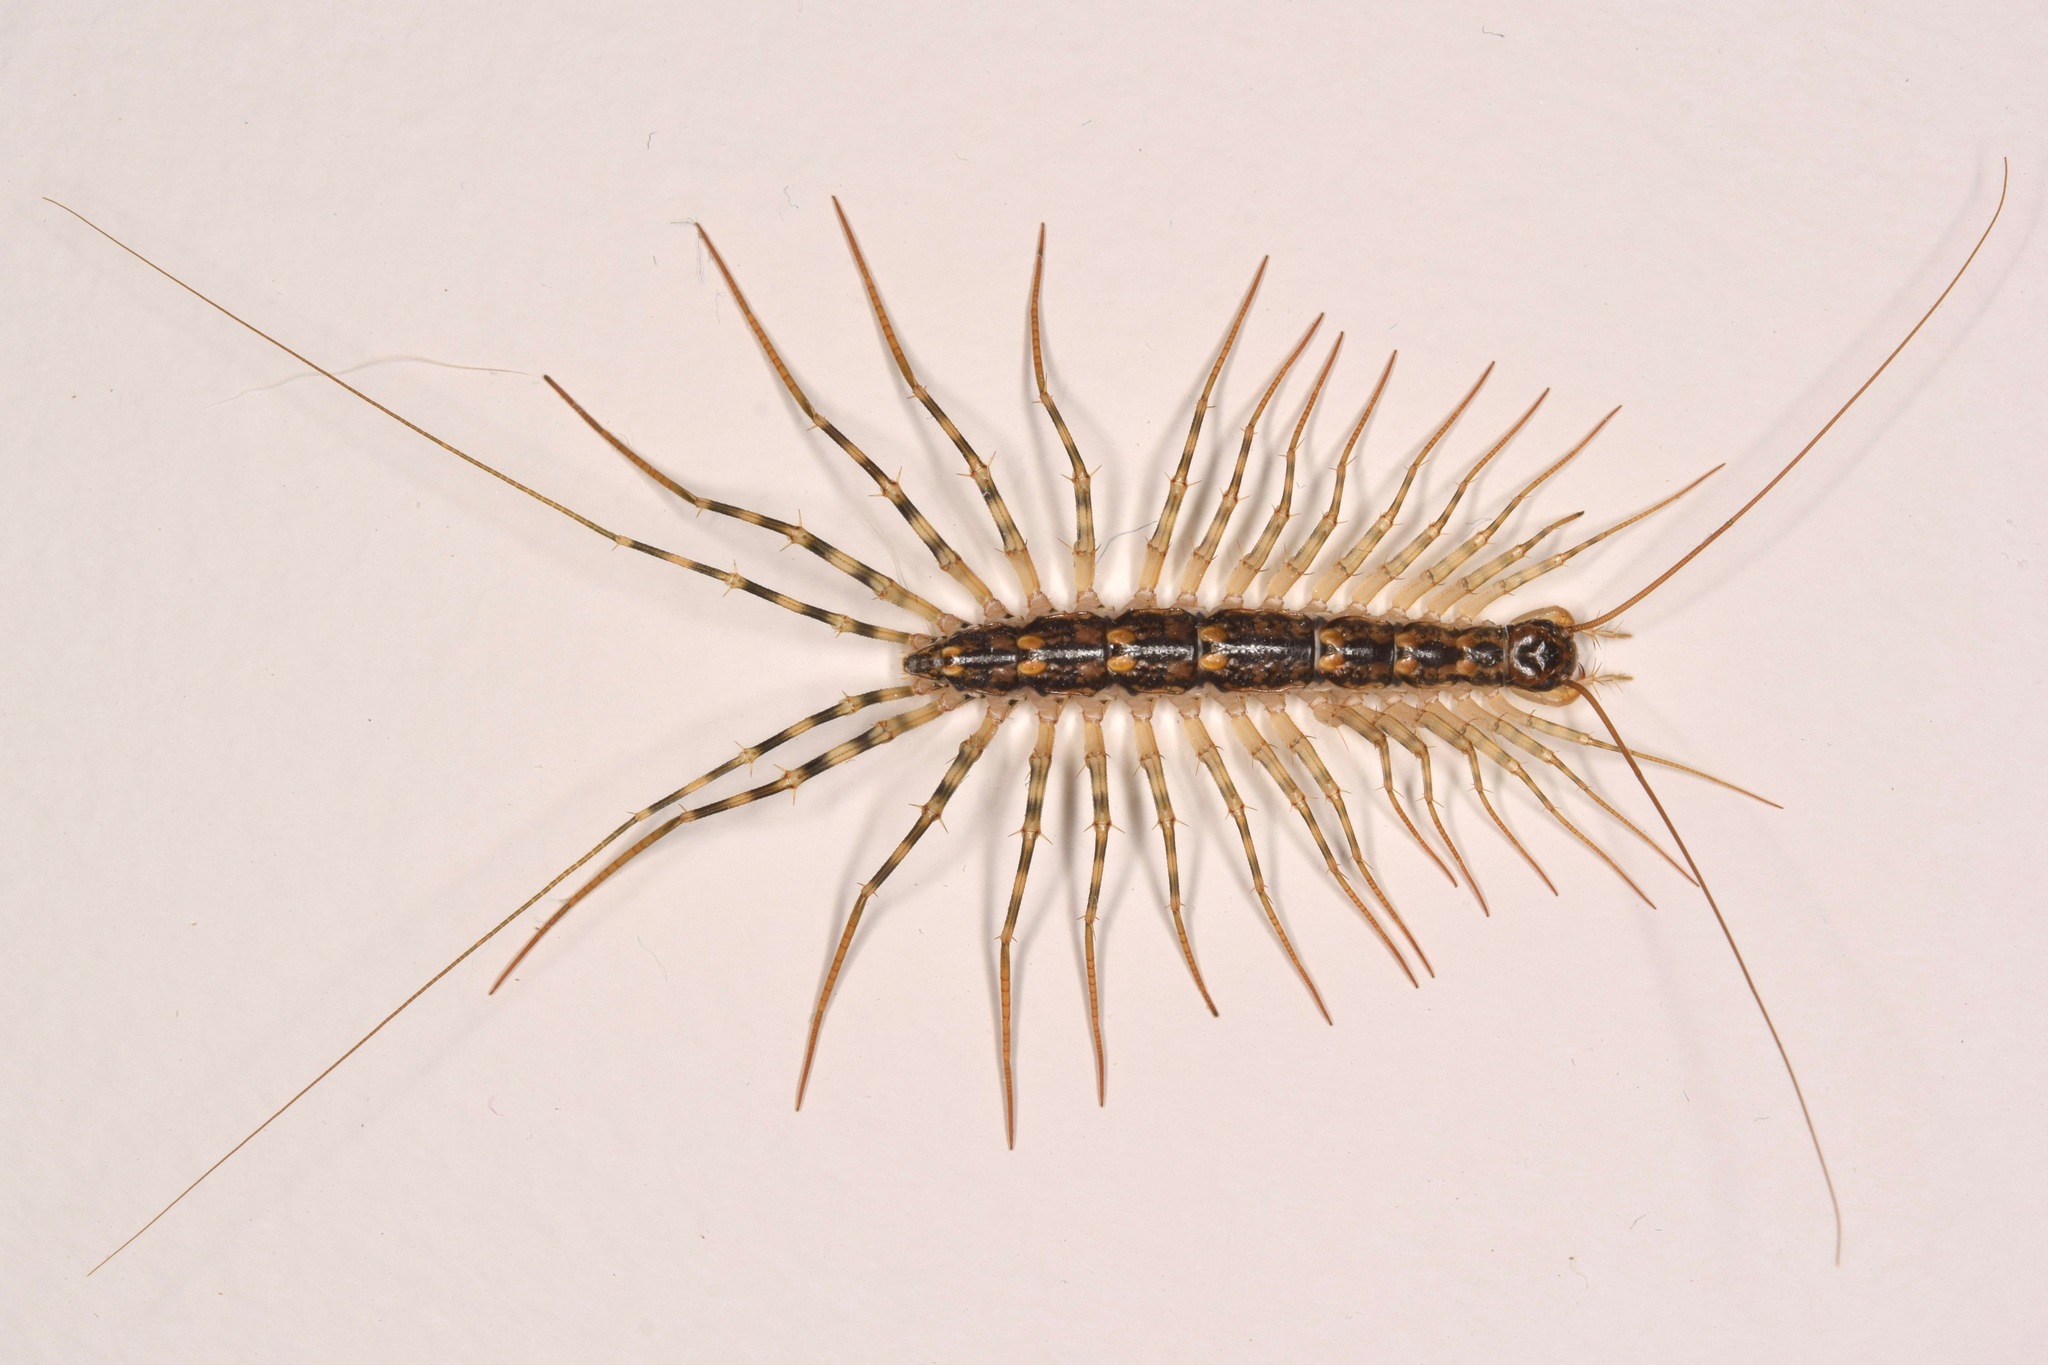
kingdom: Animalia
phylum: Arthropoda
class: Chilopoda
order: Scutigeromorpha
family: Scutigeridae
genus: Scutigera
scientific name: Scutigera coleoptrata
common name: House centipede
